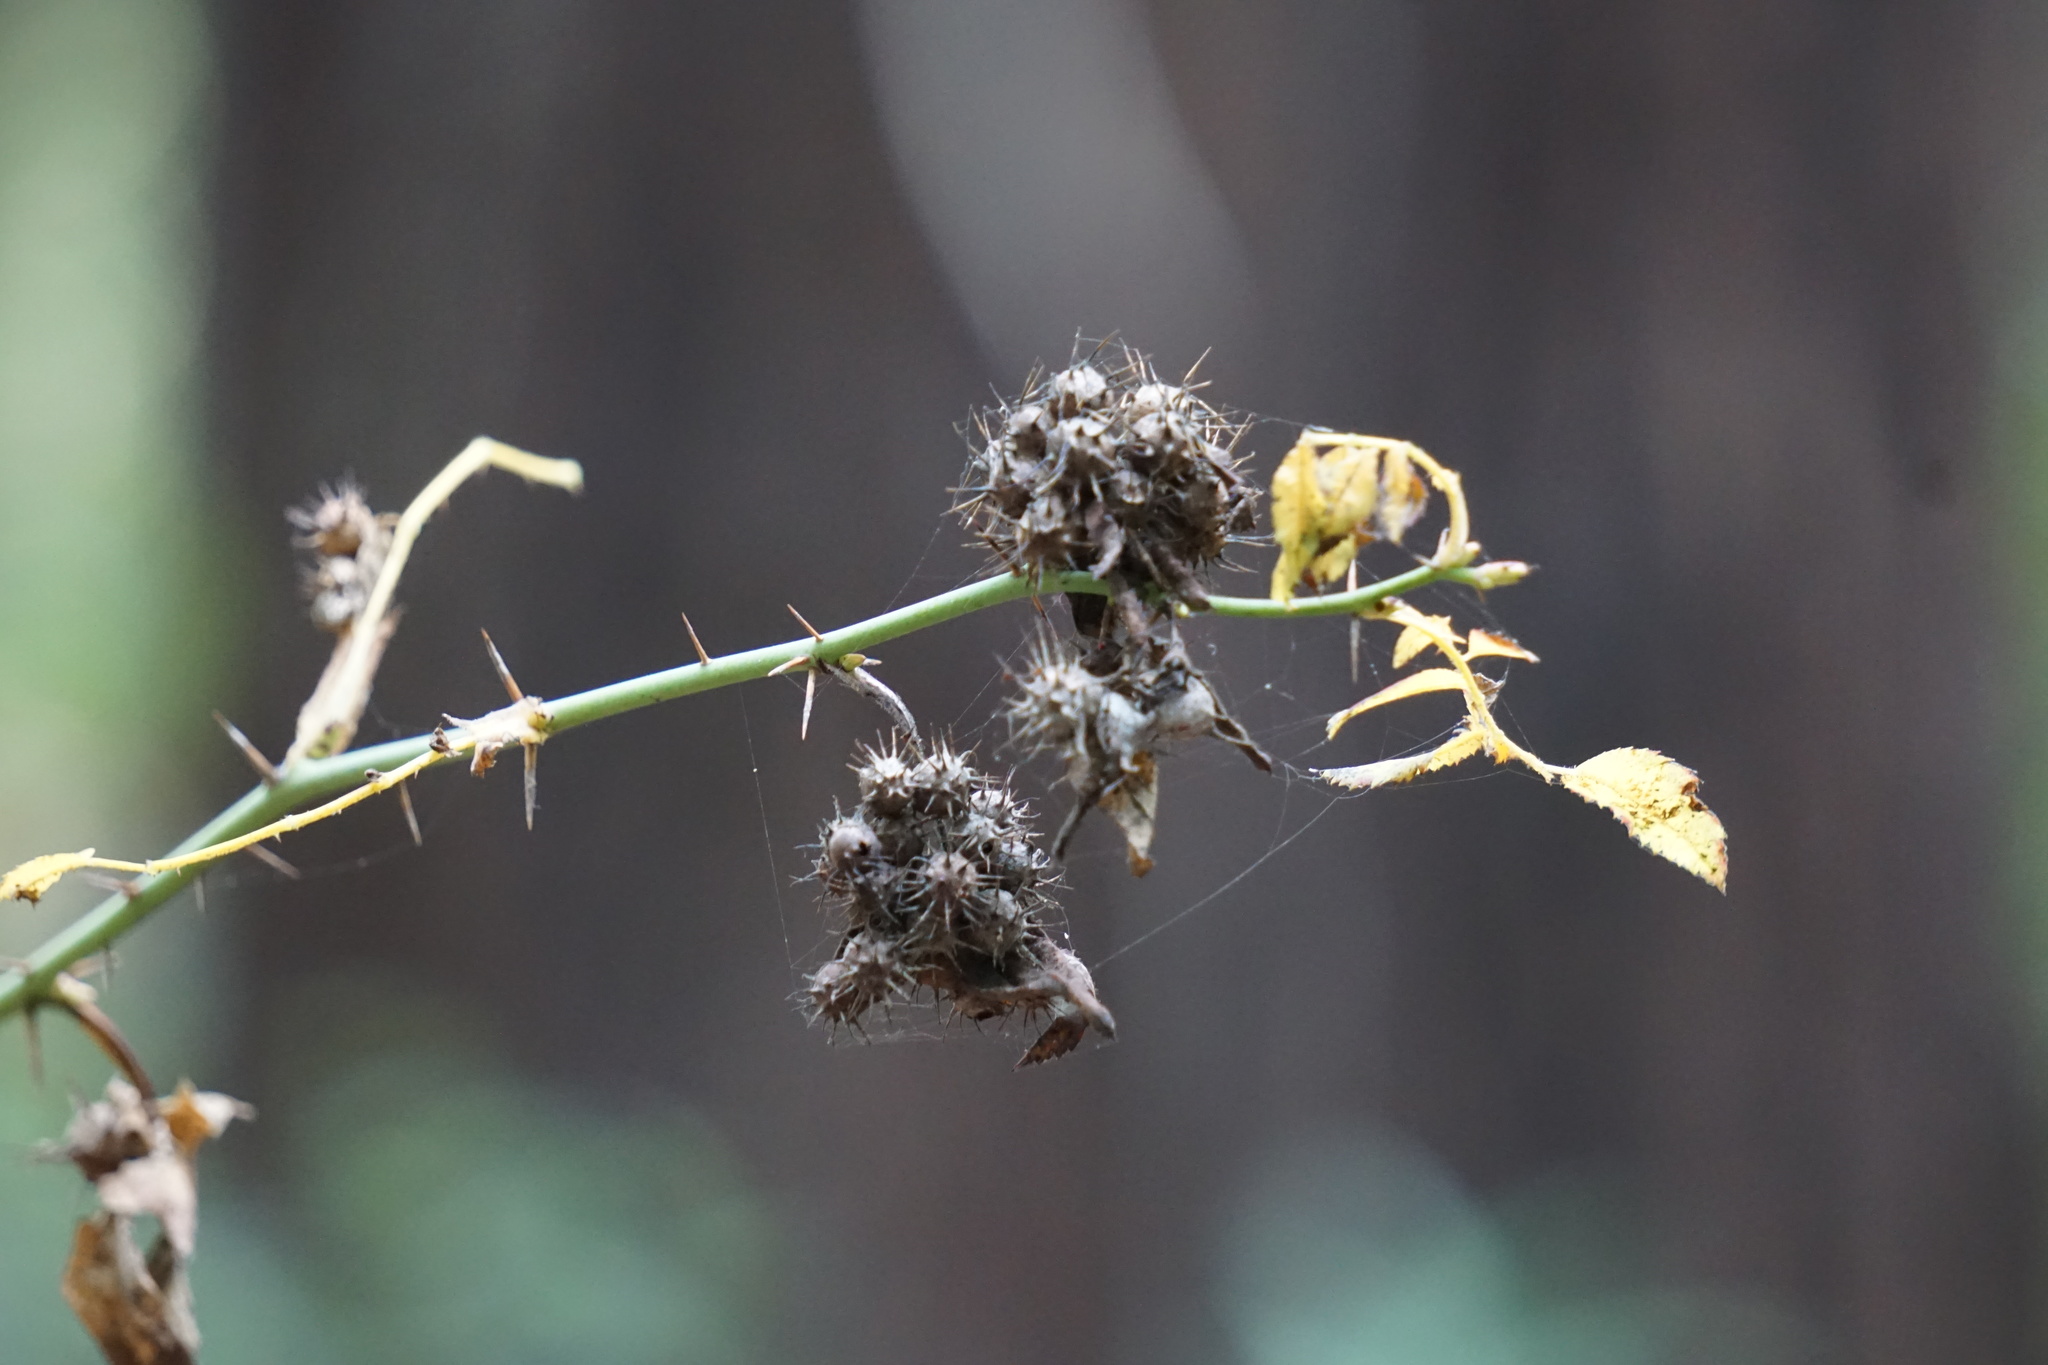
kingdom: Animalia
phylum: Arthropoda
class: Insecta
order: Hymenoptera
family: Cynipidae
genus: Diplolepis
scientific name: Diplolepis bicolor
